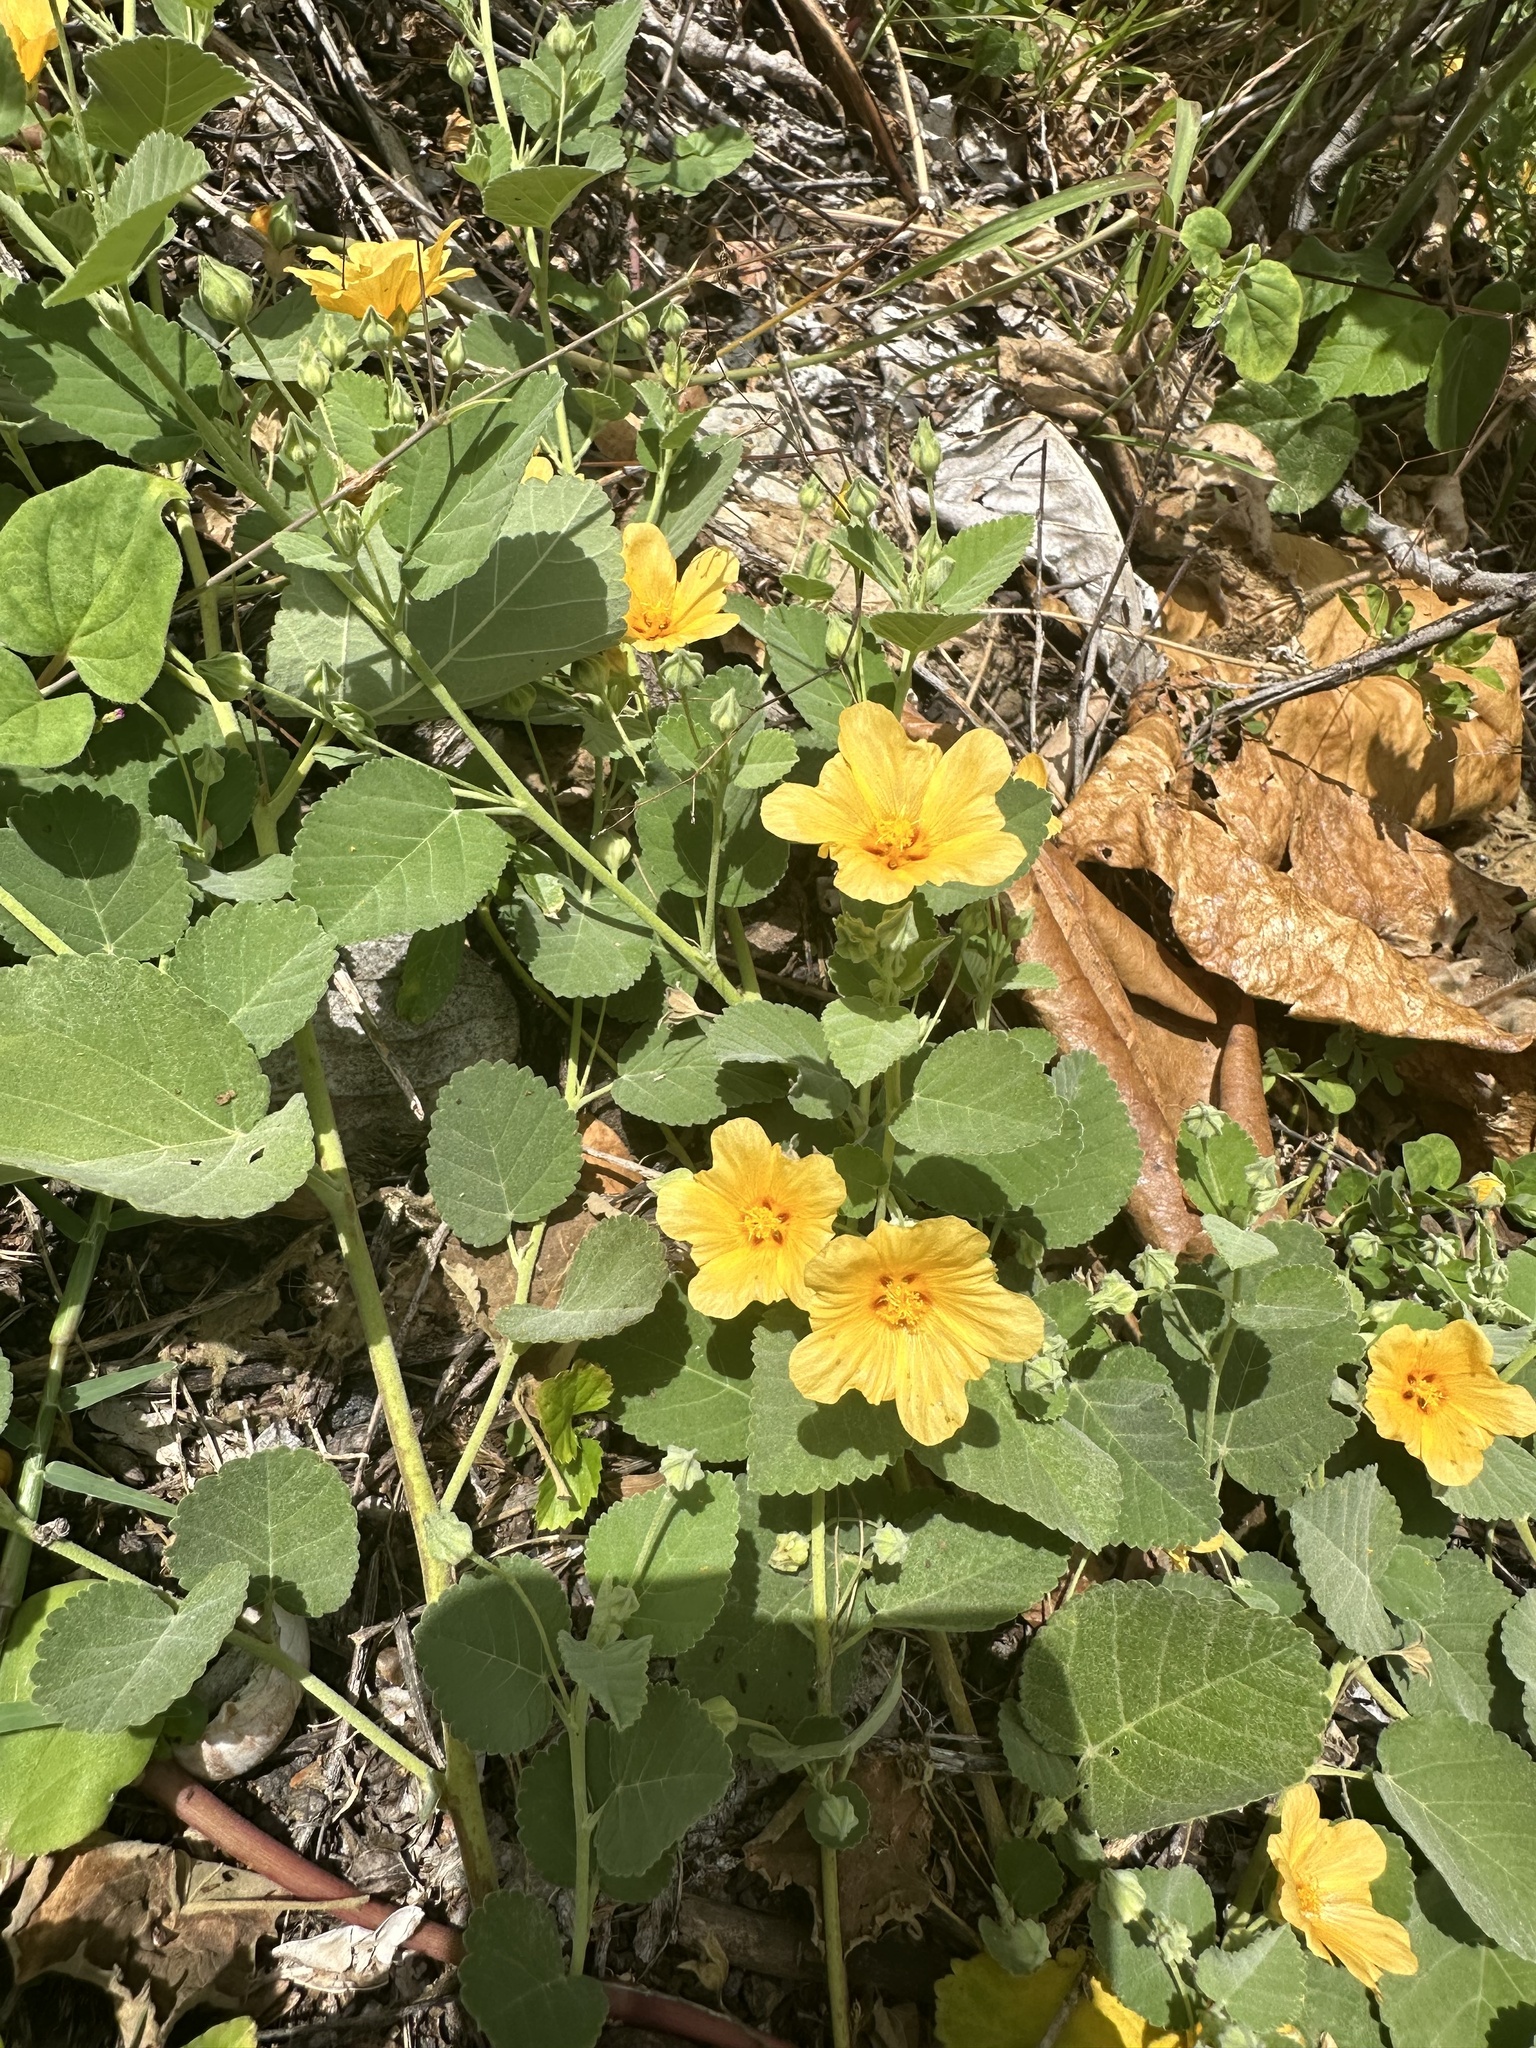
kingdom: Plantae
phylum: Tracheophyta
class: Magnoliopsida
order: Malvales
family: Malvaceae
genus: Sida
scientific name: Sida fallax
